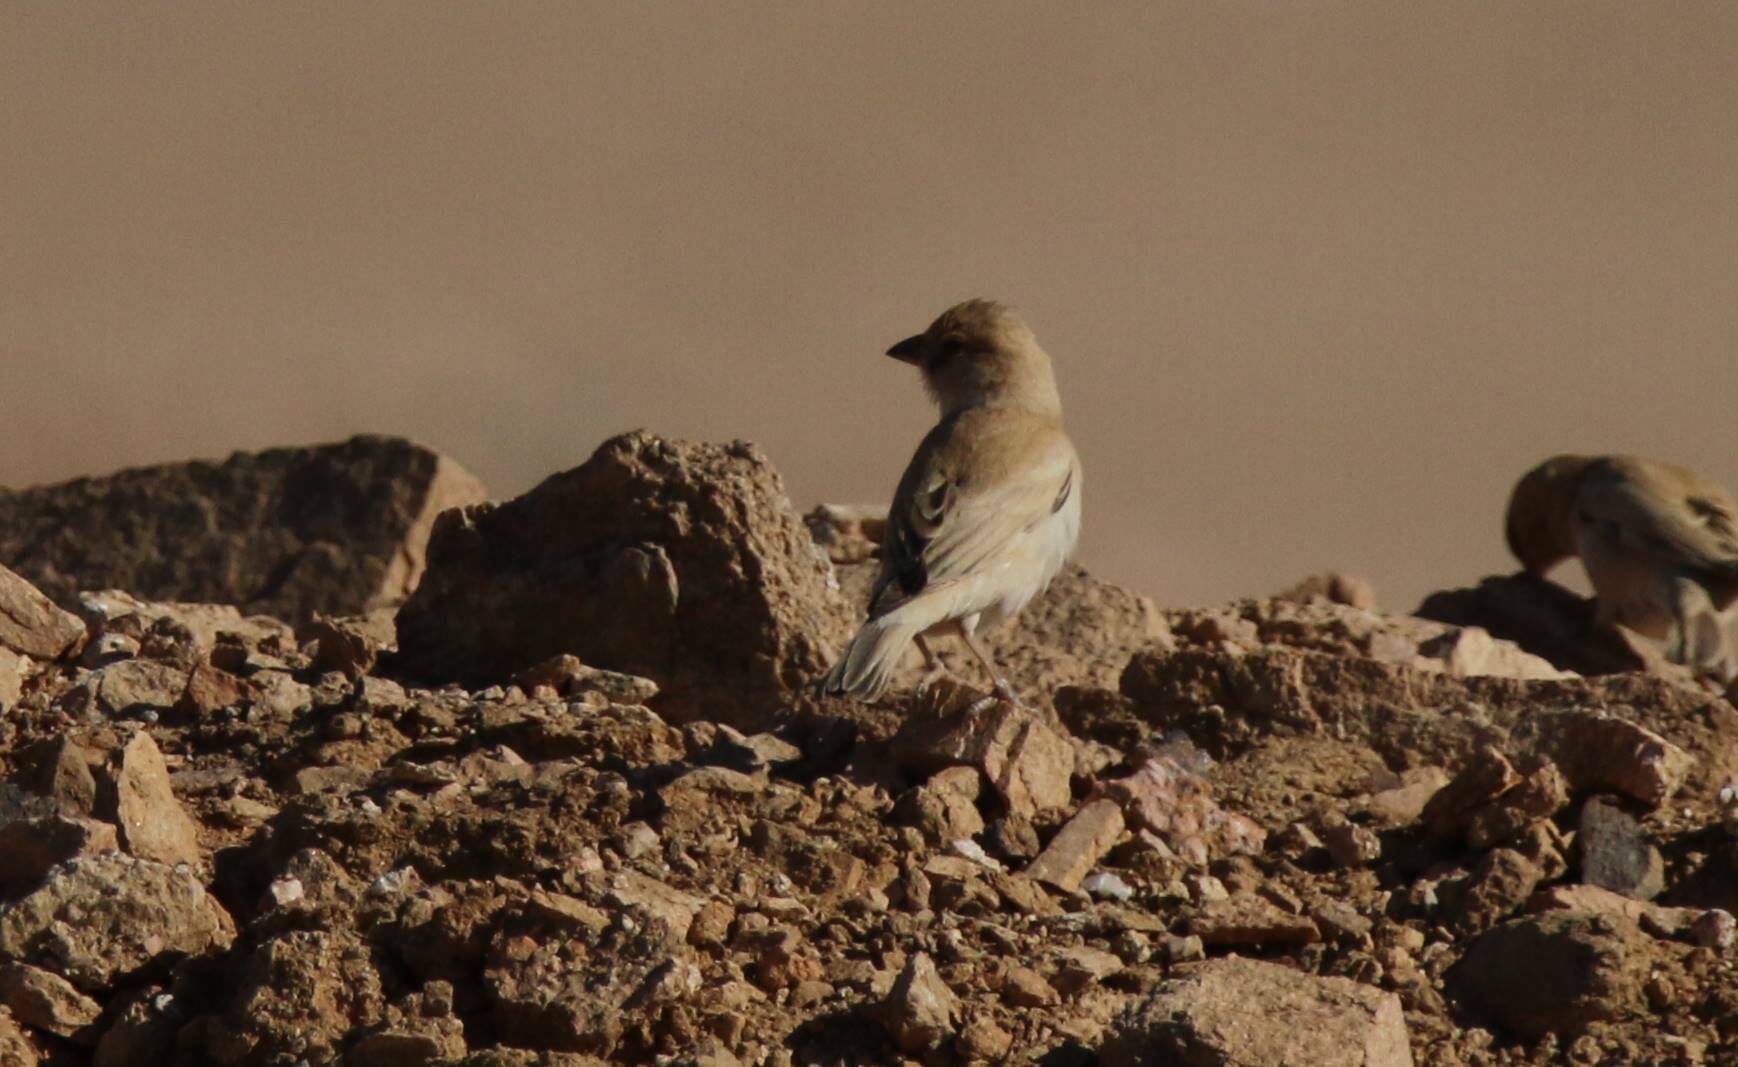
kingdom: Animalia
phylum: Chordata
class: Aves
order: Passeriformes
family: Passeridae
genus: Passer
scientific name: Passer simplex
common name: Desert sparrow
